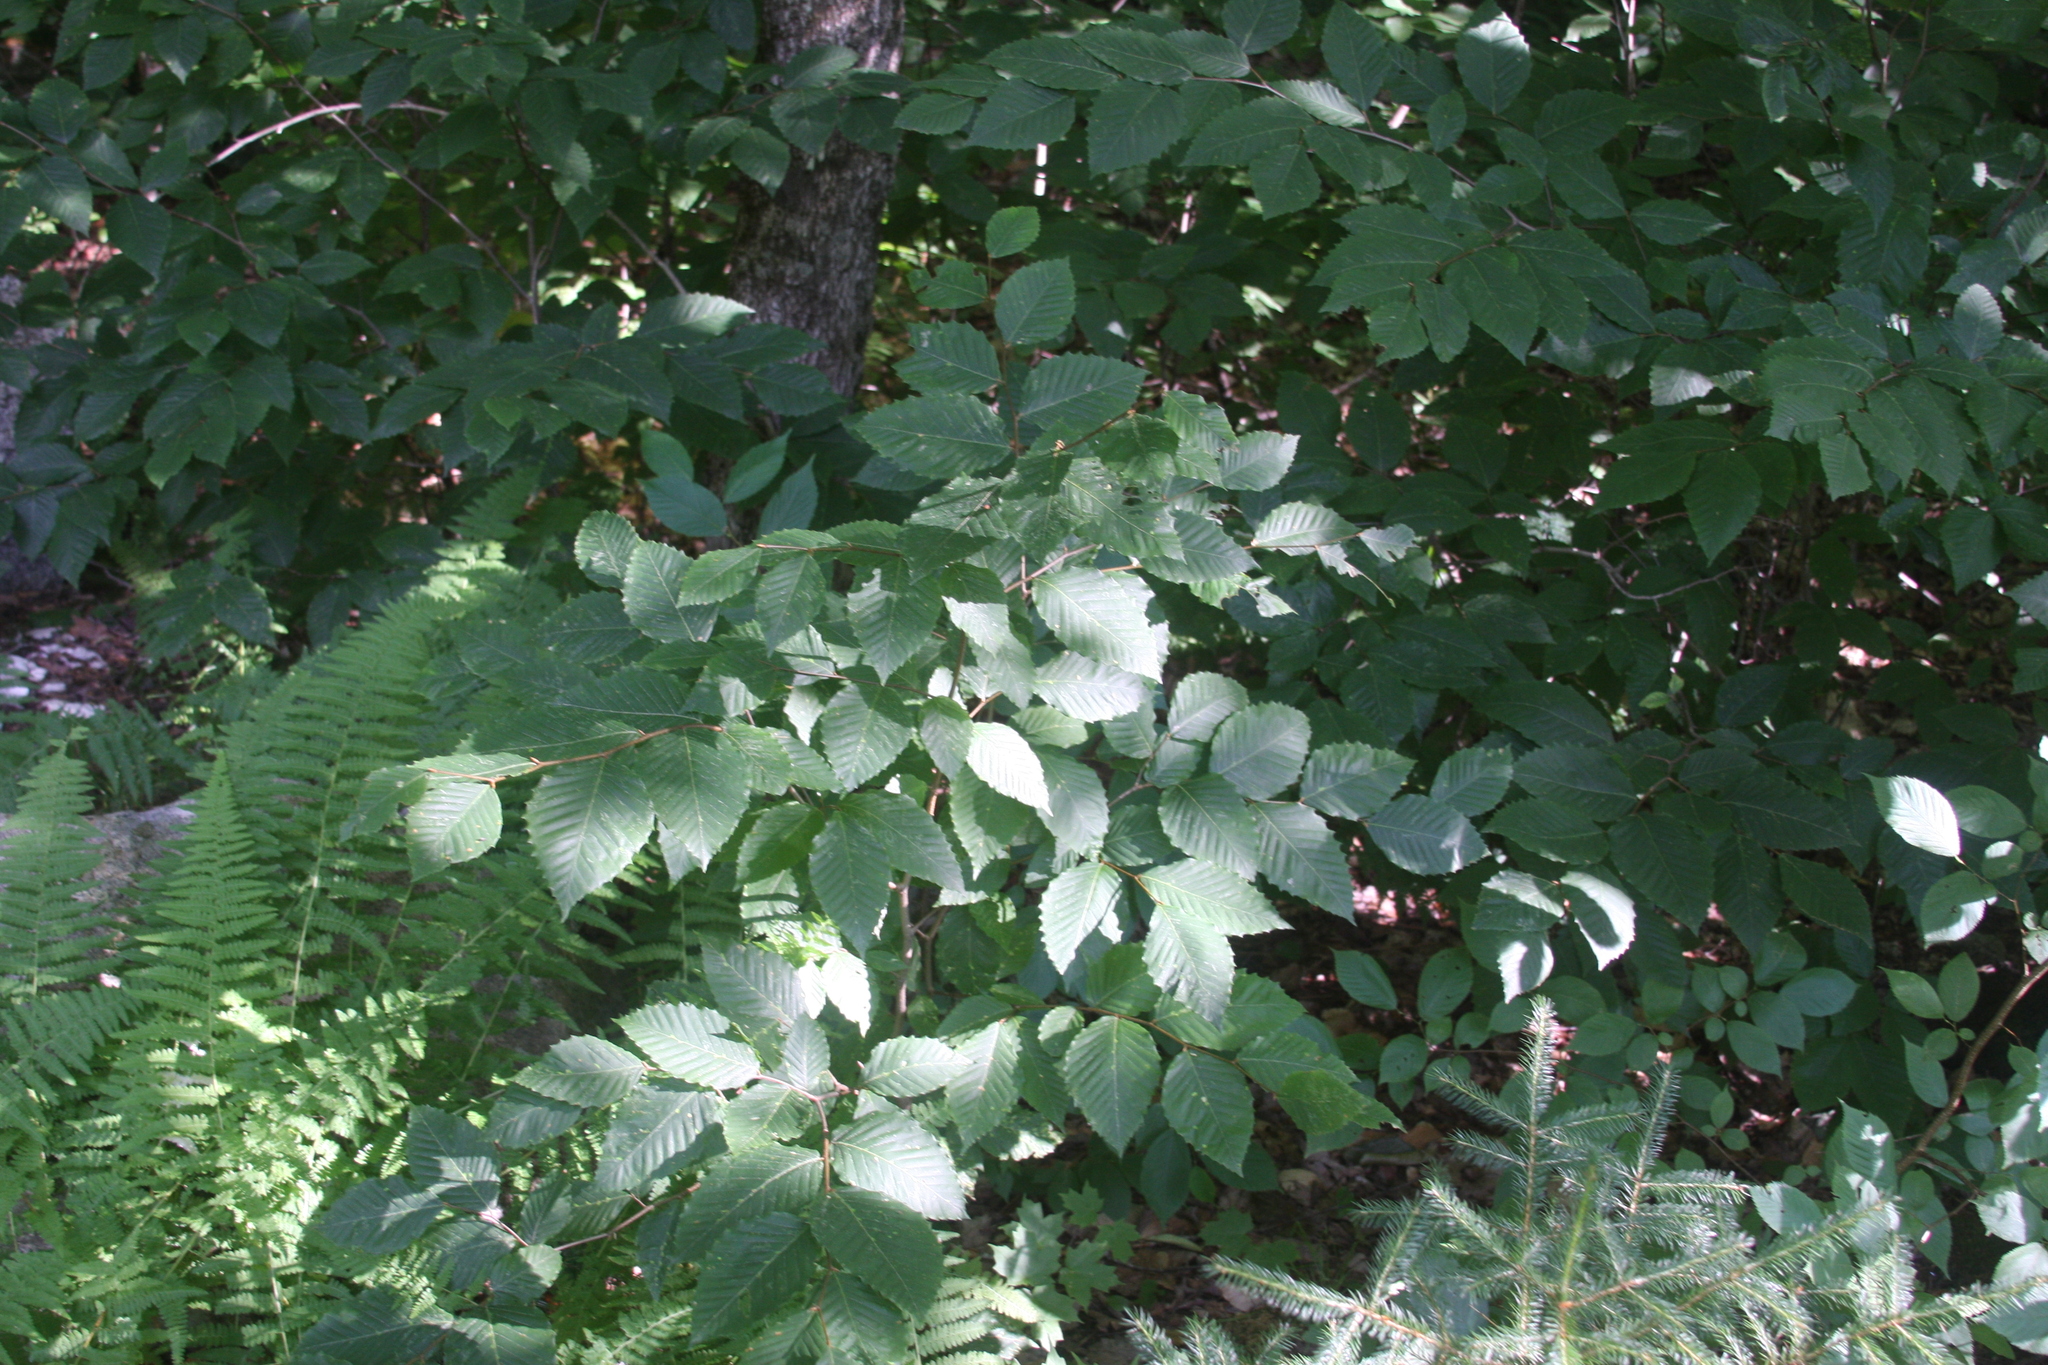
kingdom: Plantae
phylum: Tracheophyta
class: Magnoliopsida
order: Fagales
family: Fagaceae
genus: Fagus
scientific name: Fagus grandifolia
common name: American beech
